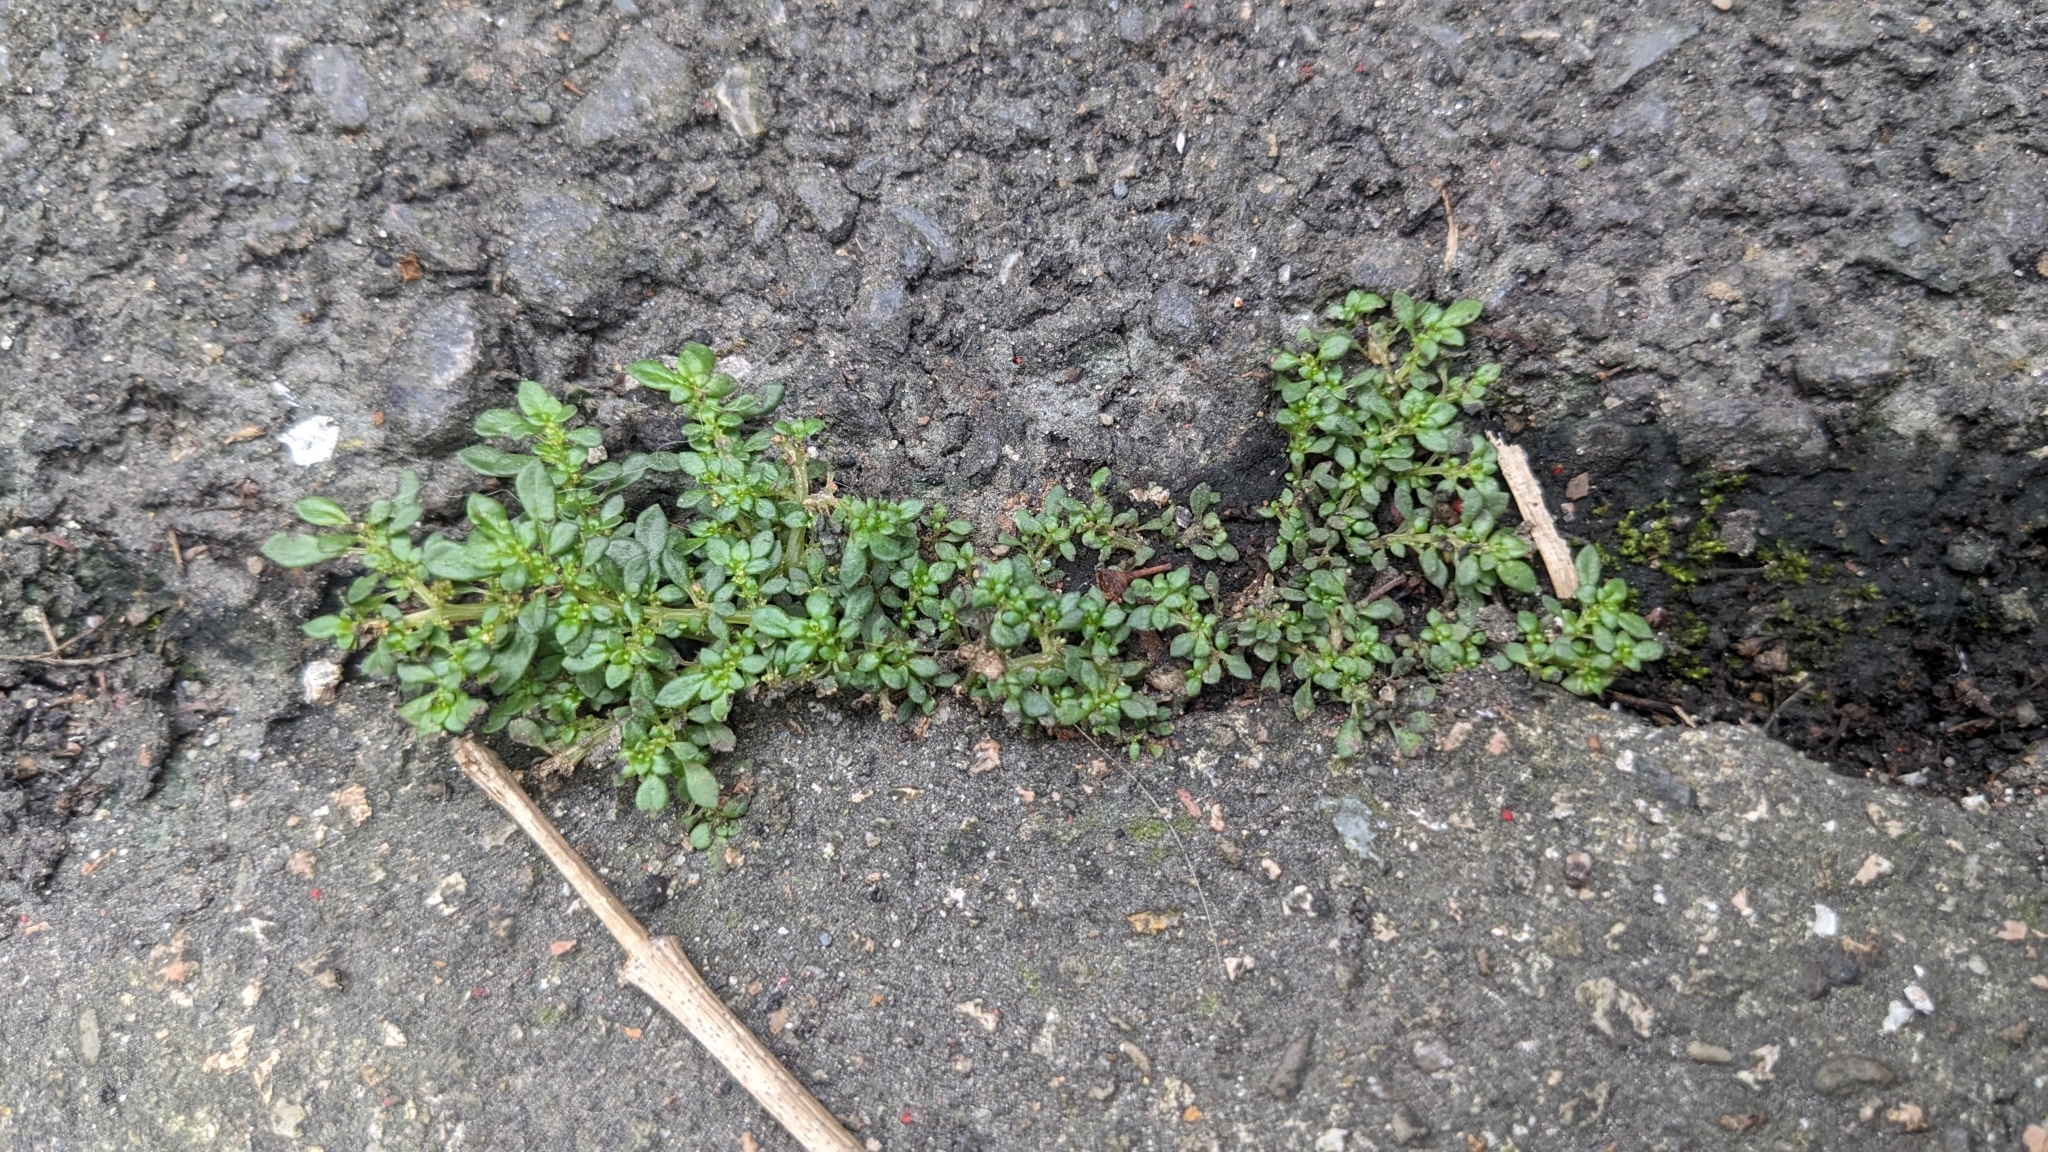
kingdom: Plantae
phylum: Tracheophyta
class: Magnoliopsida
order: Rosales
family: Urticaceae
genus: Pilea
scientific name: Pilea microphylla
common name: Artillery-plant
